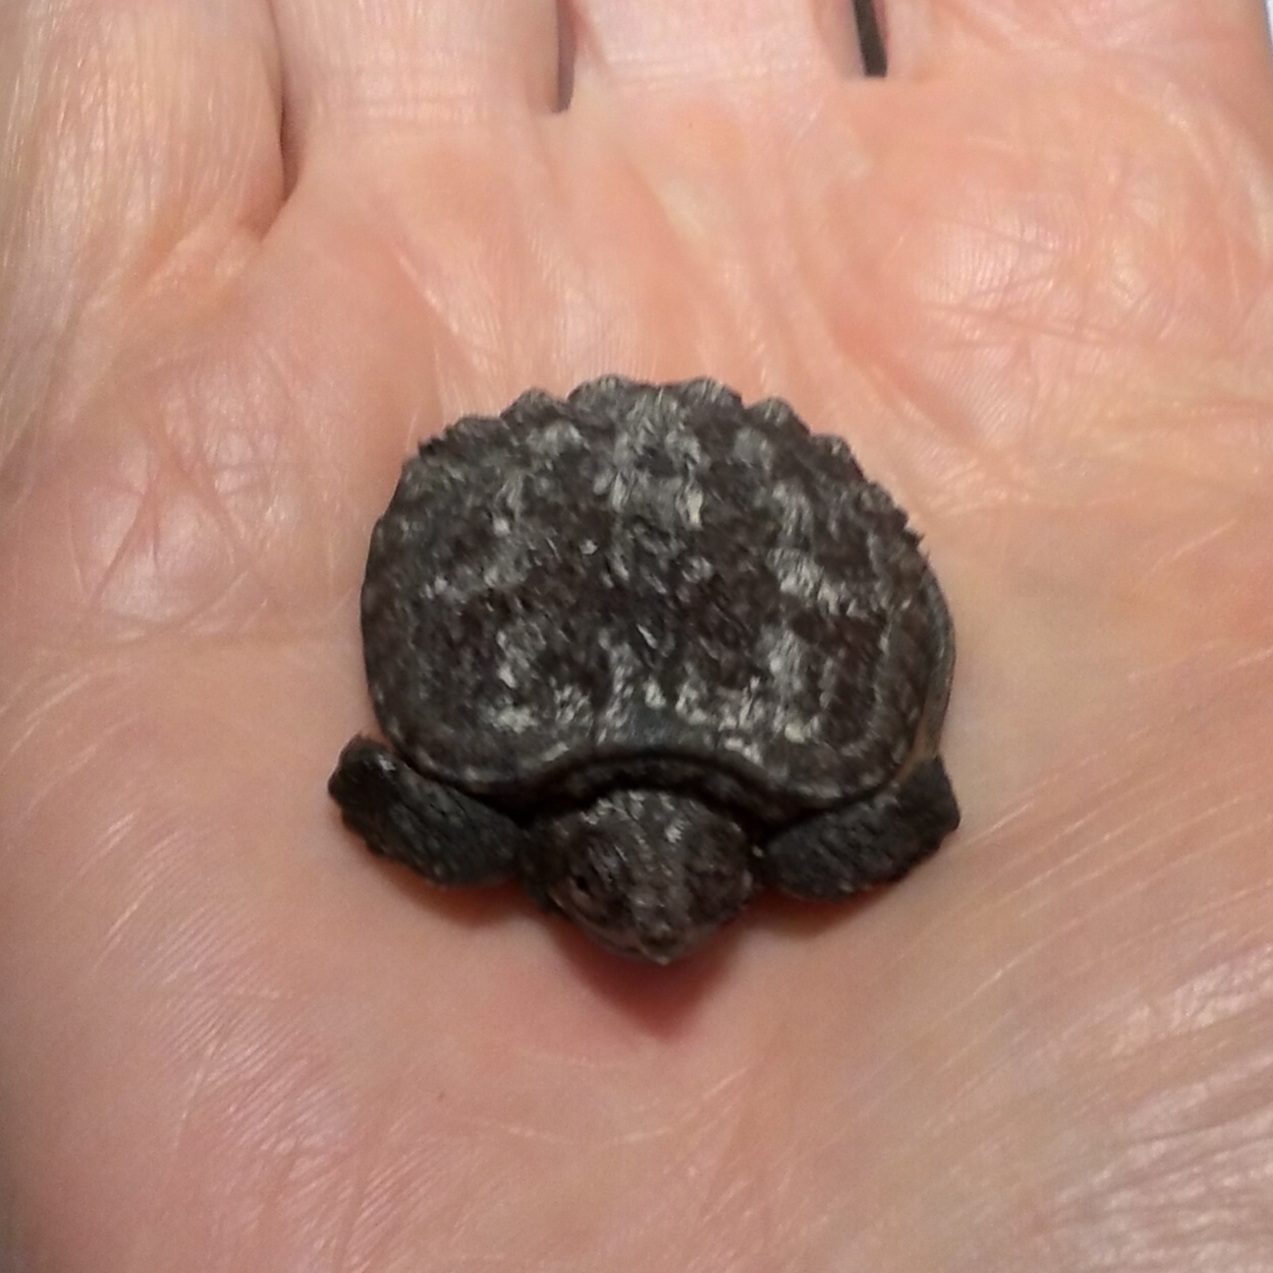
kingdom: Animalia
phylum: Chordata
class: Testudines
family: Chelydridae
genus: Chelydra
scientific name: Chelydra serpentina
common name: Common snapping turtle
